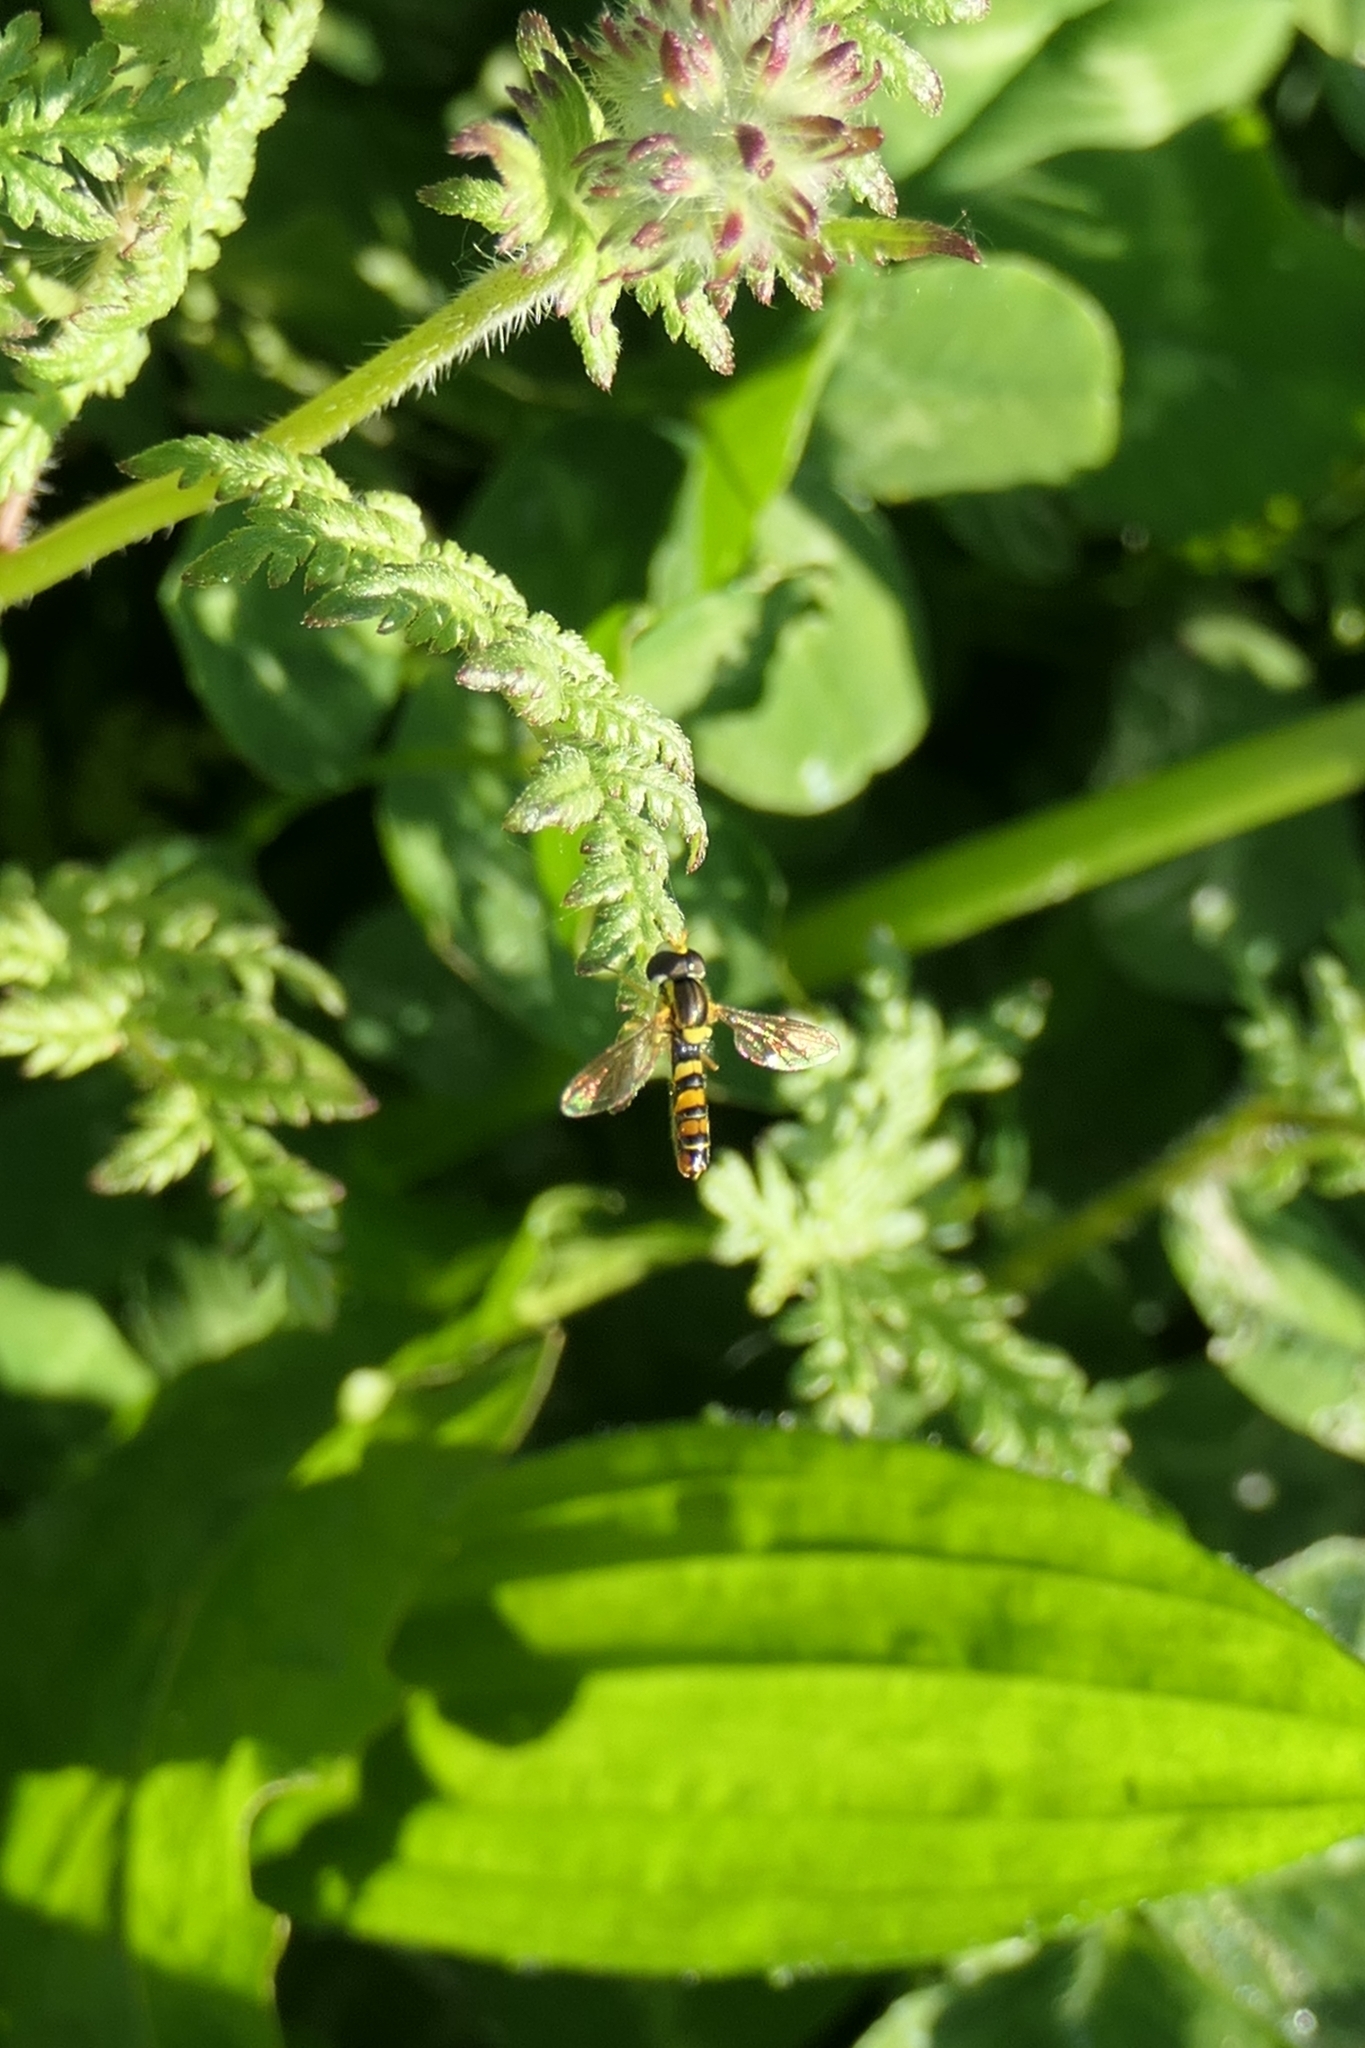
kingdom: Animalia
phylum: Arthropoda
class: Insecta
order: Diptera
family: Syrphidae
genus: Sphaerophoria
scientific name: Sphaerophoria macrogaster
